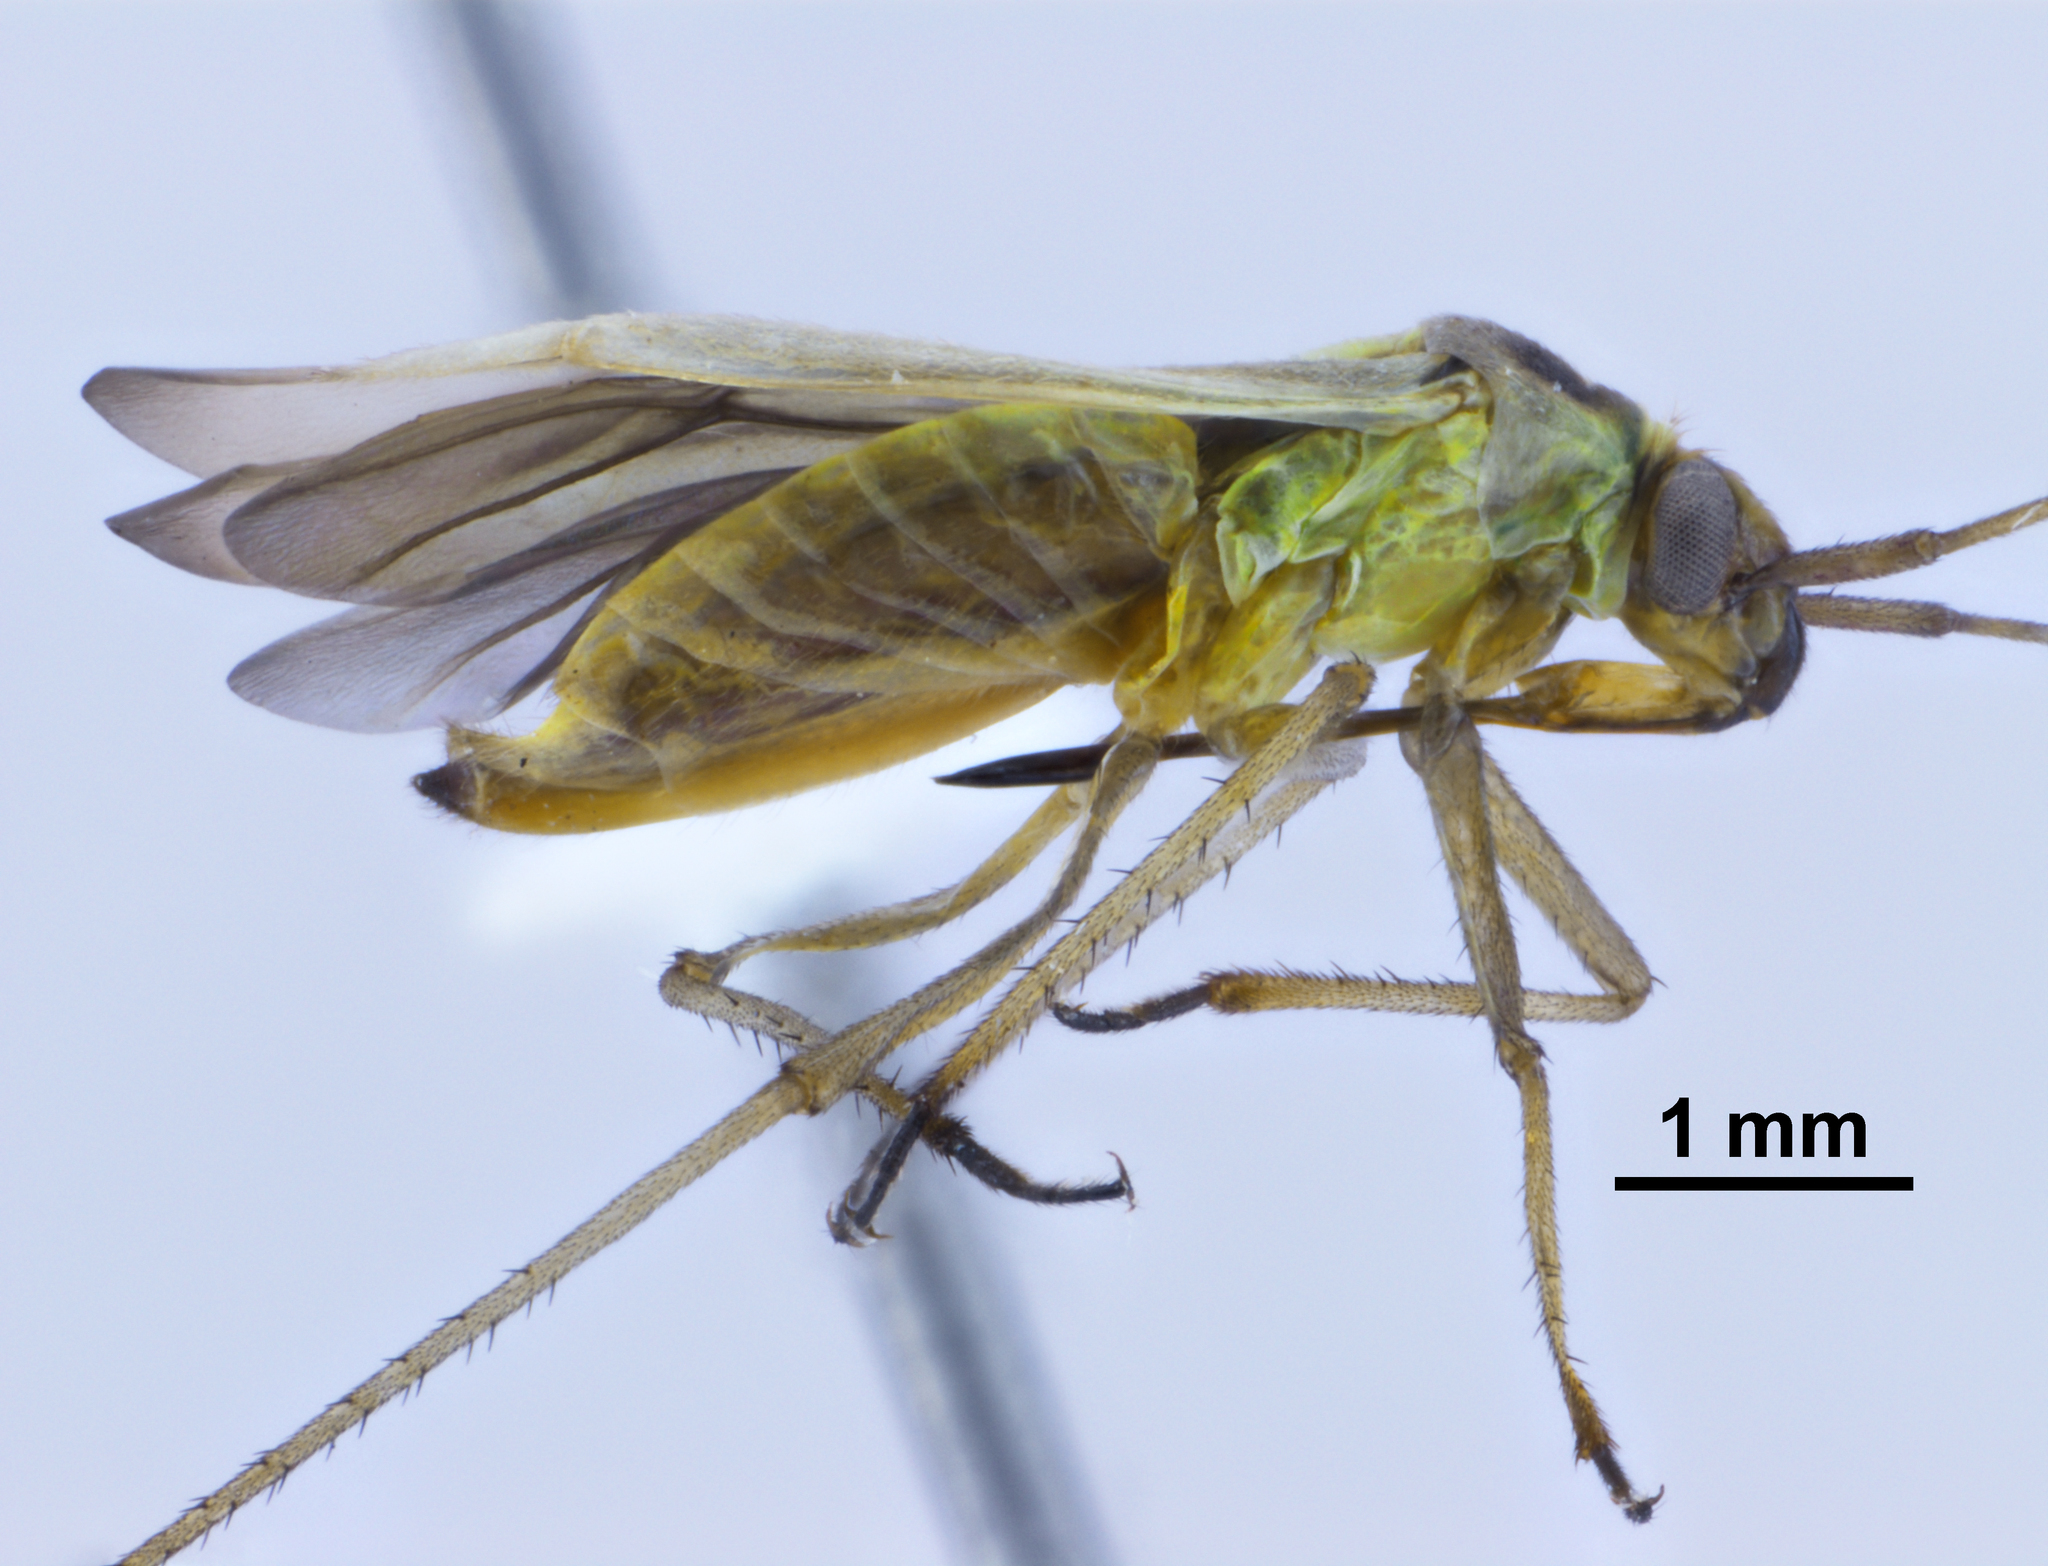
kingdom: Animalia
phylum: Arthropoda
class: Insecta
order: Hemiptera
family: Miridae
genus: Stenotus
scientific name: Stenotus binotatus
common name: Plant bug
